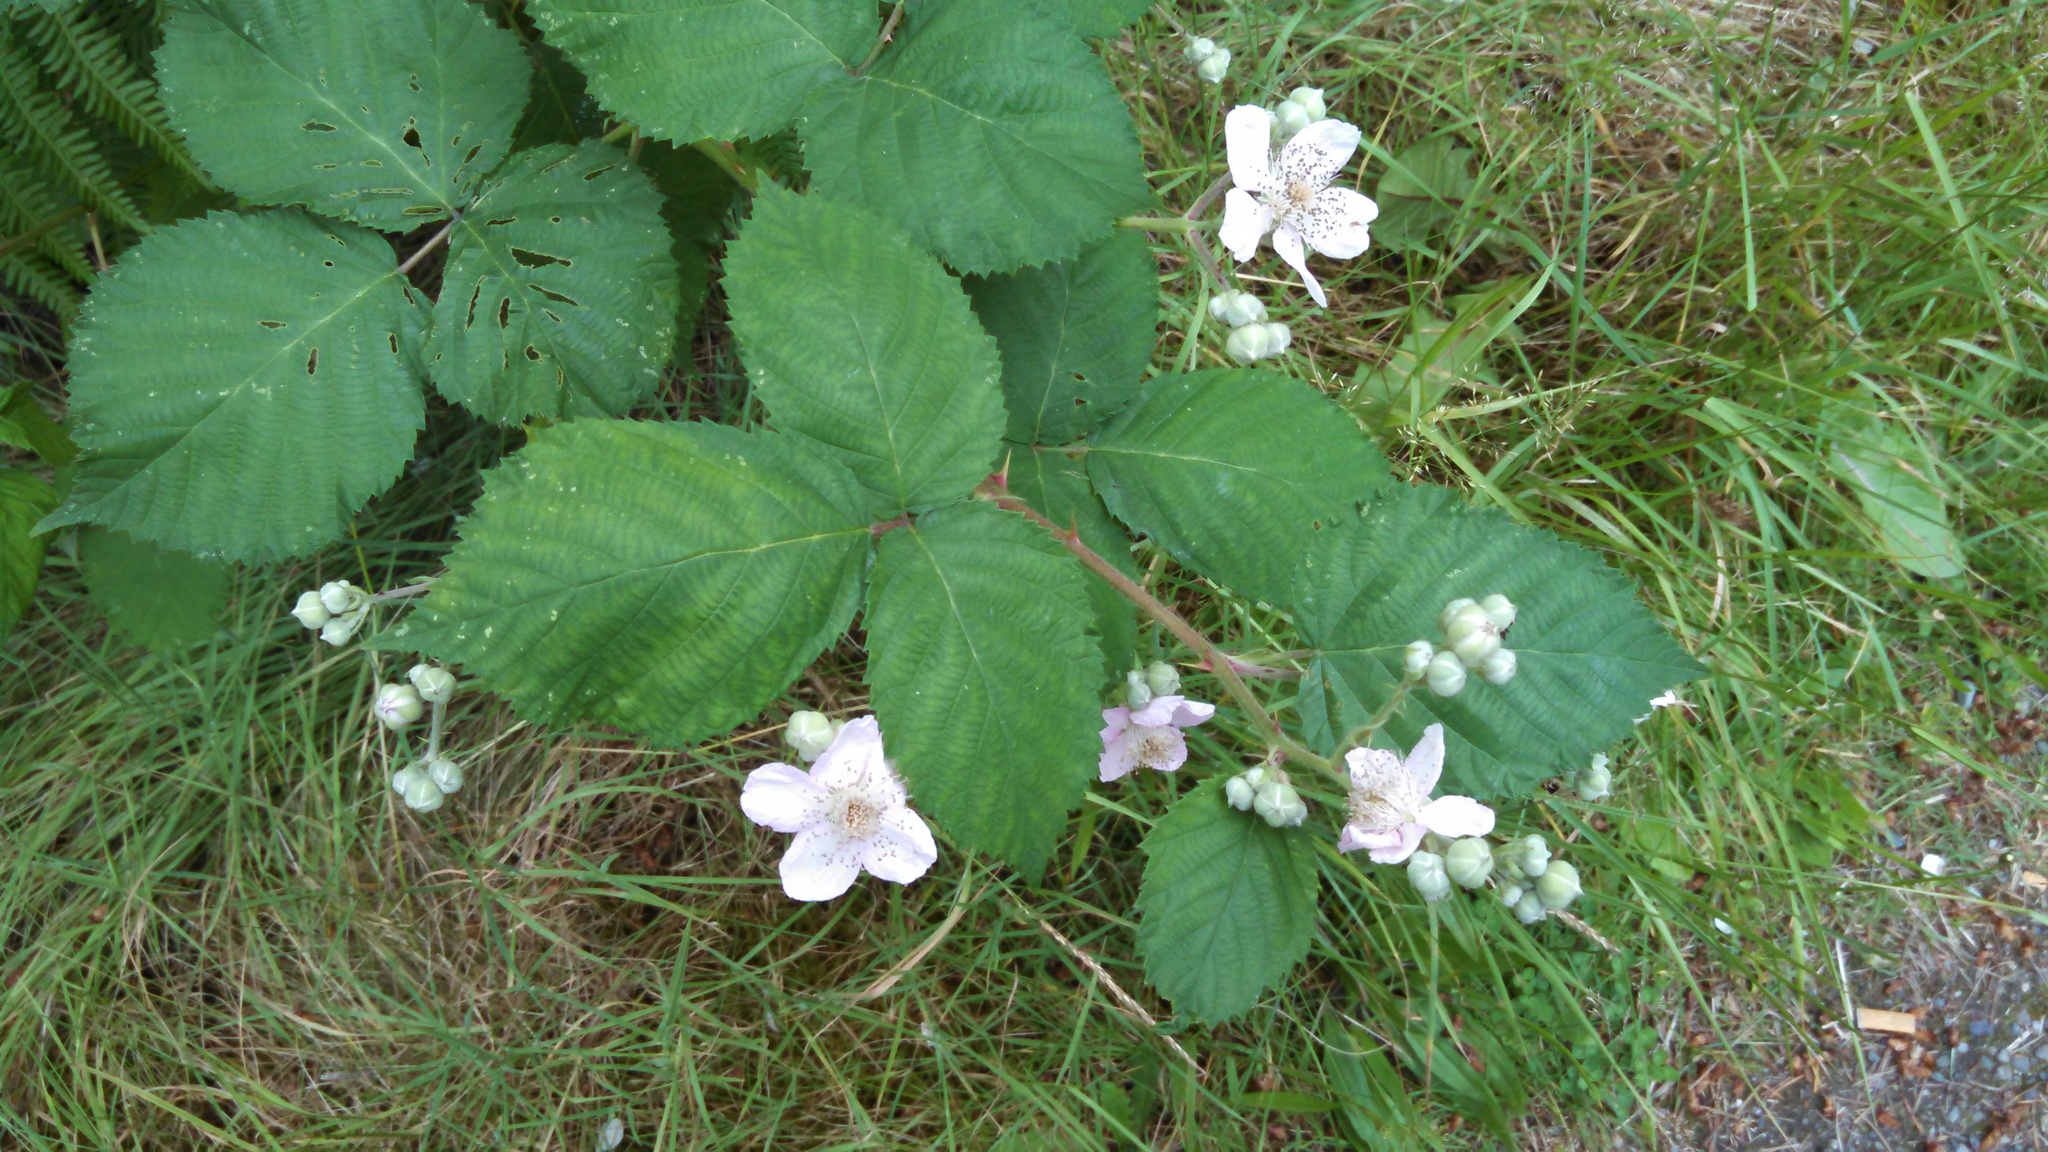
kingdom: Plantae
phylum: Tracheophyta
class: Magnoliopsida
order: Rosales
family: Rosaceae
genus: Rubus
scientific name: Rubus bifrons
